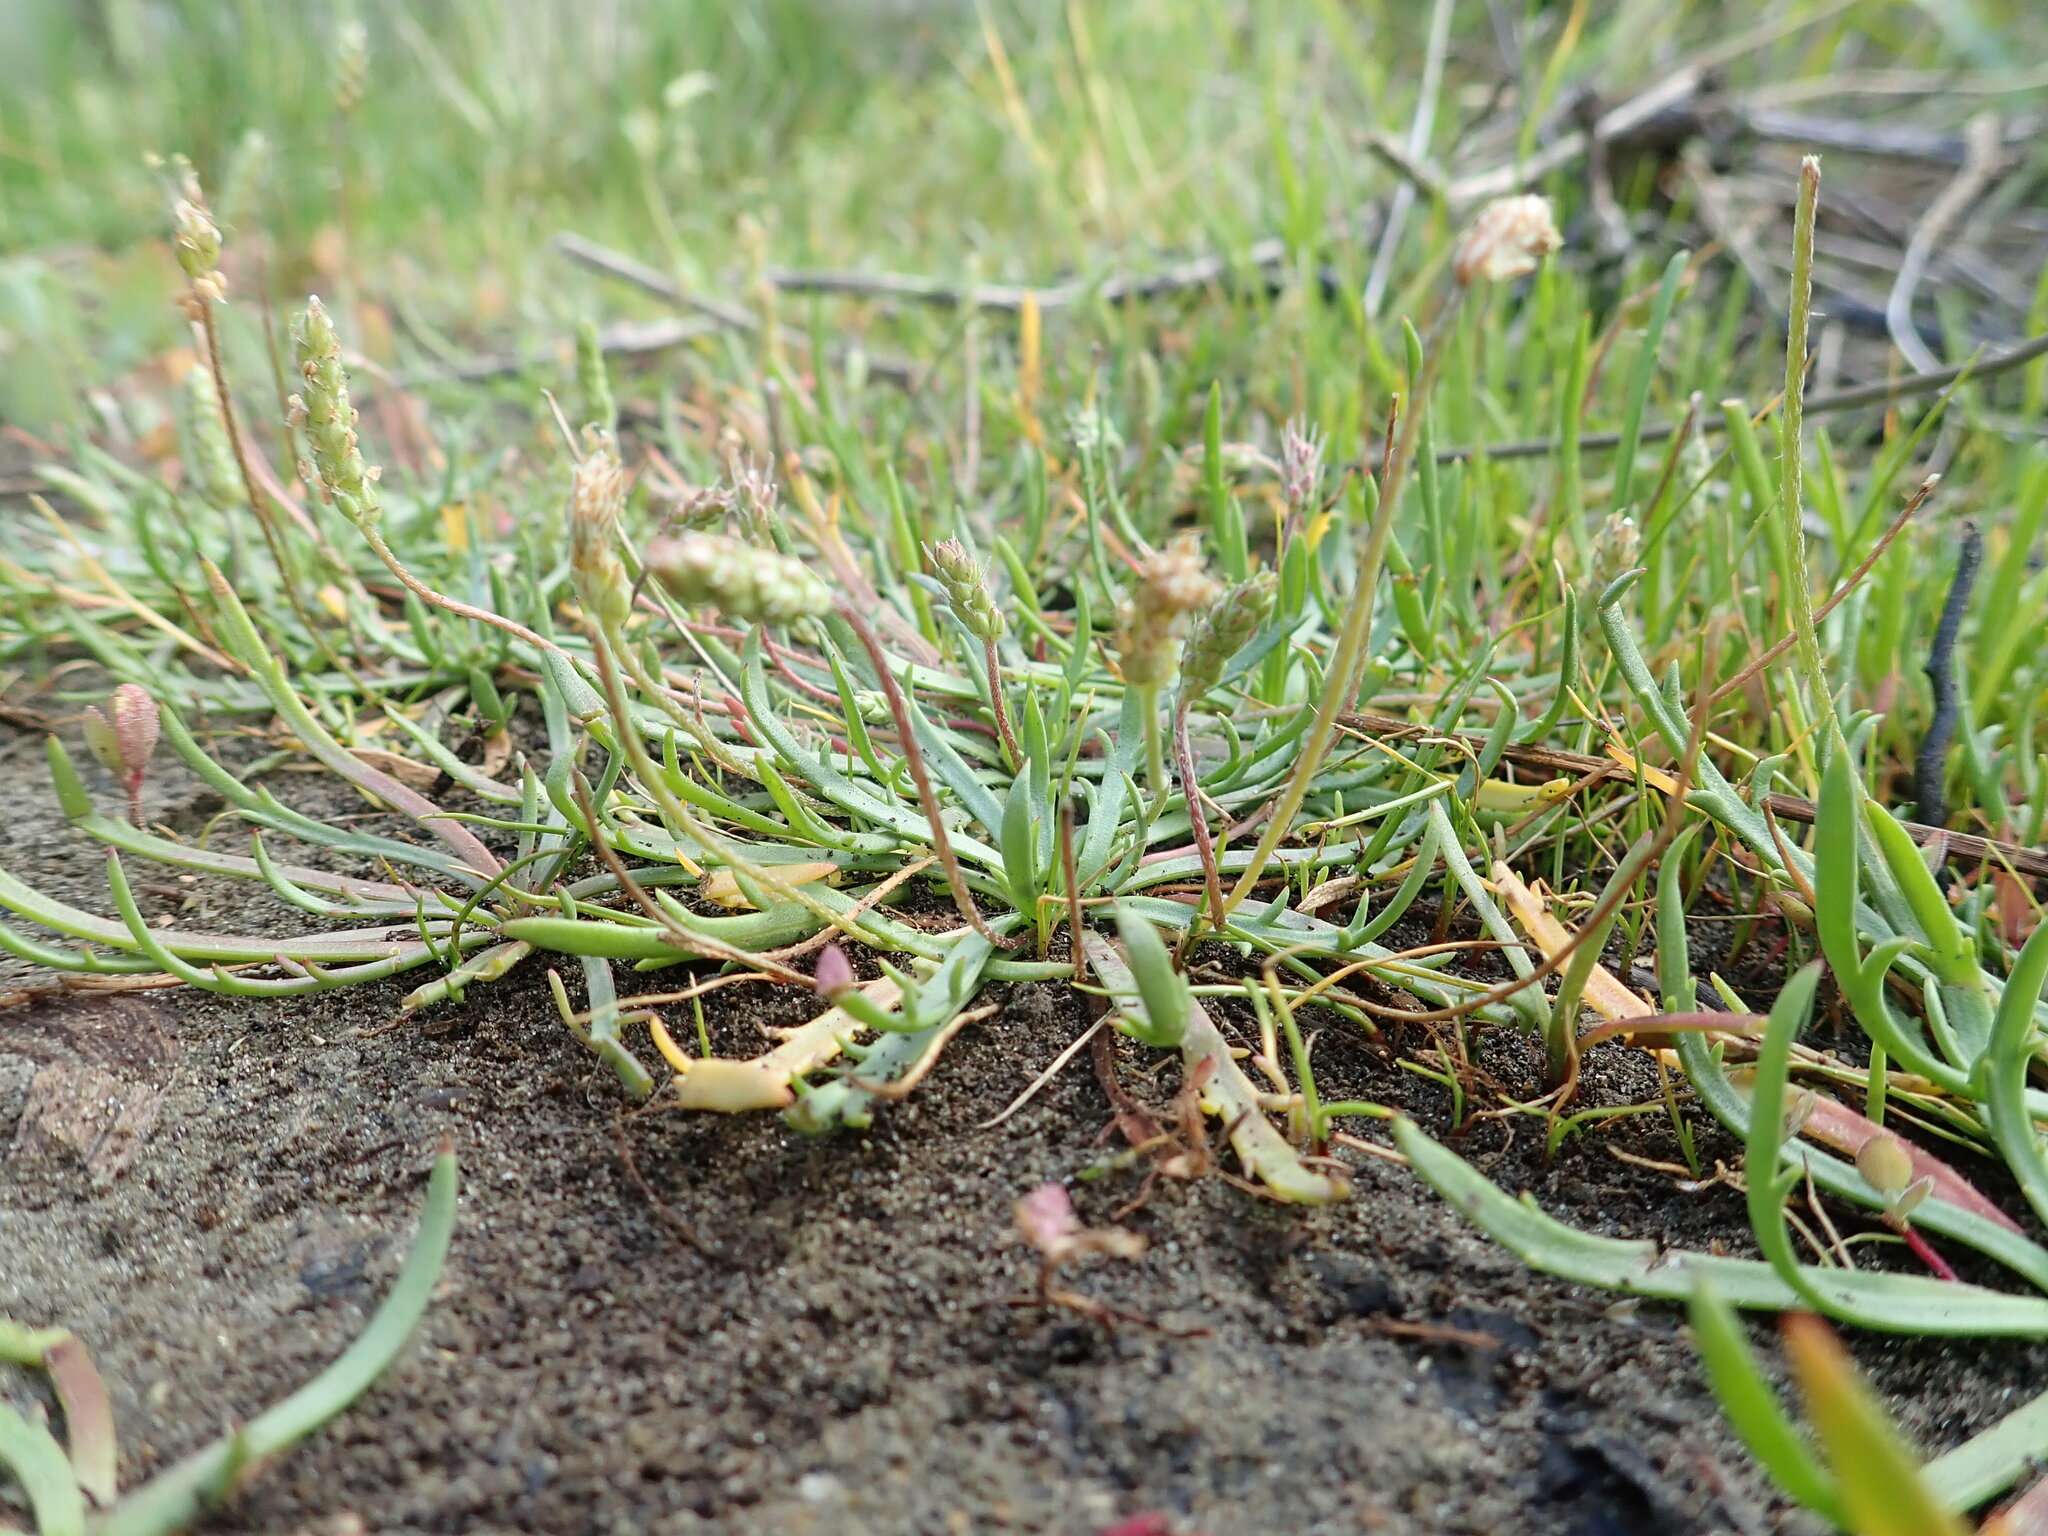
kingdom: Plantae
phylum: Tracheophyta
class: Magnoliopsida
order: Lamiales
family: Plantaginaceae
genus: Plantago
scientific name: Plantago coronopus
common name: Buck's-horn plantain
